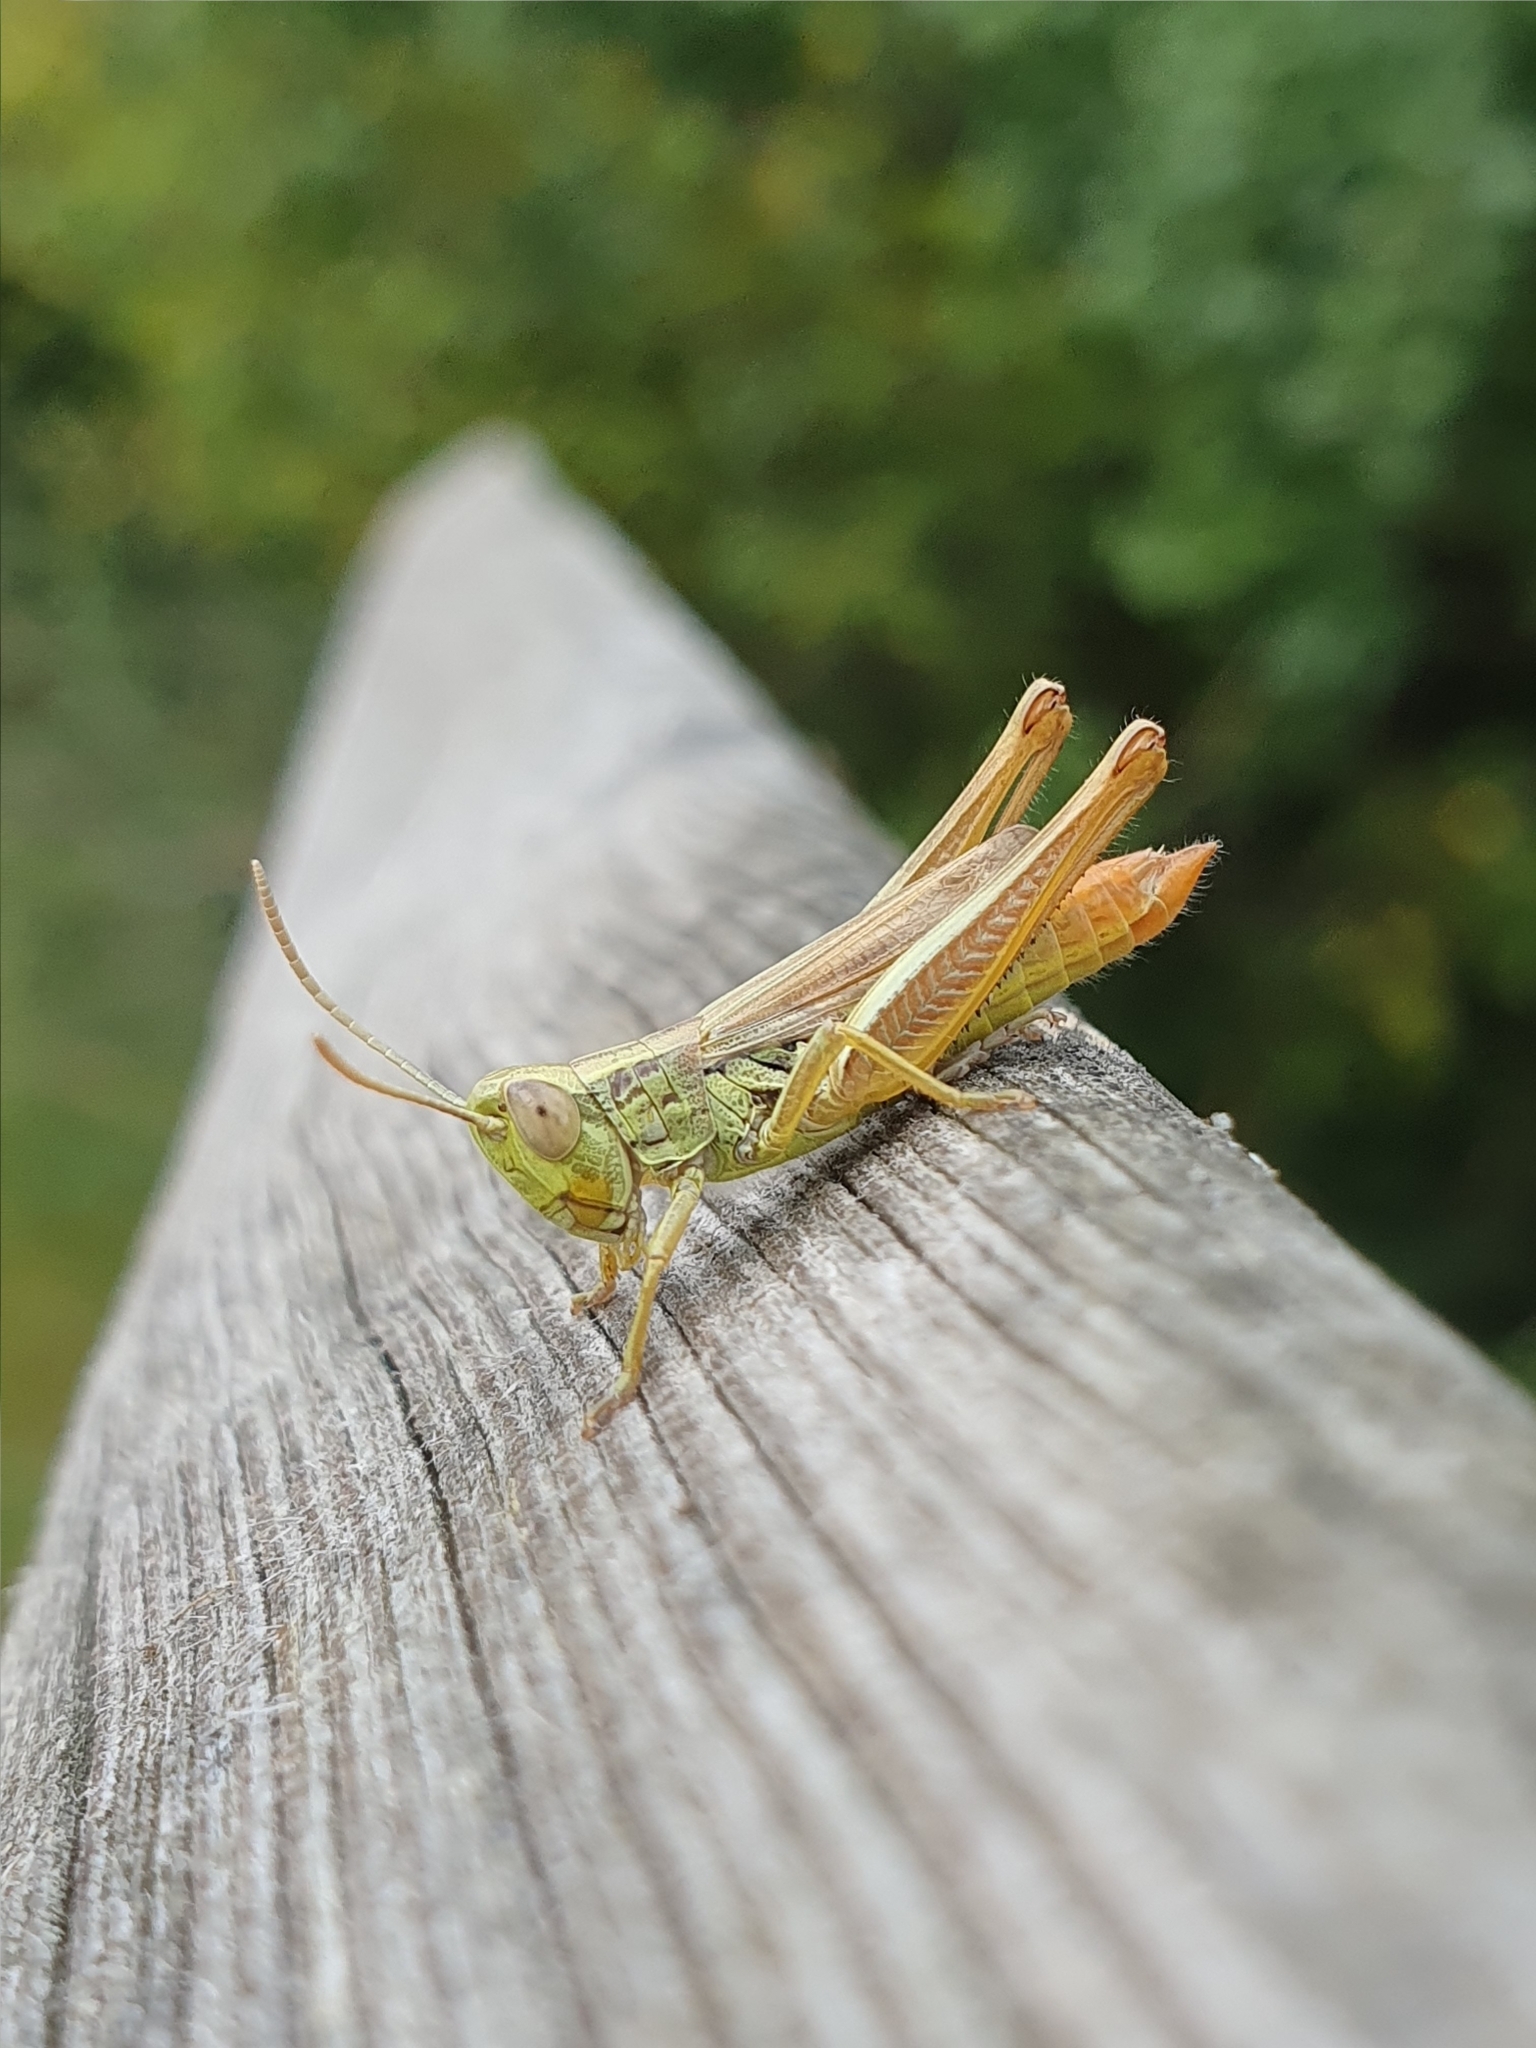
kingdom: Animalia
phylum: Arthropoda
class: Insecta
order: Orthoptera
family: Acrididae
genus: Euchorthippus
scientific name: Euchorthippus declivus
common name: Common straw grasshopper
